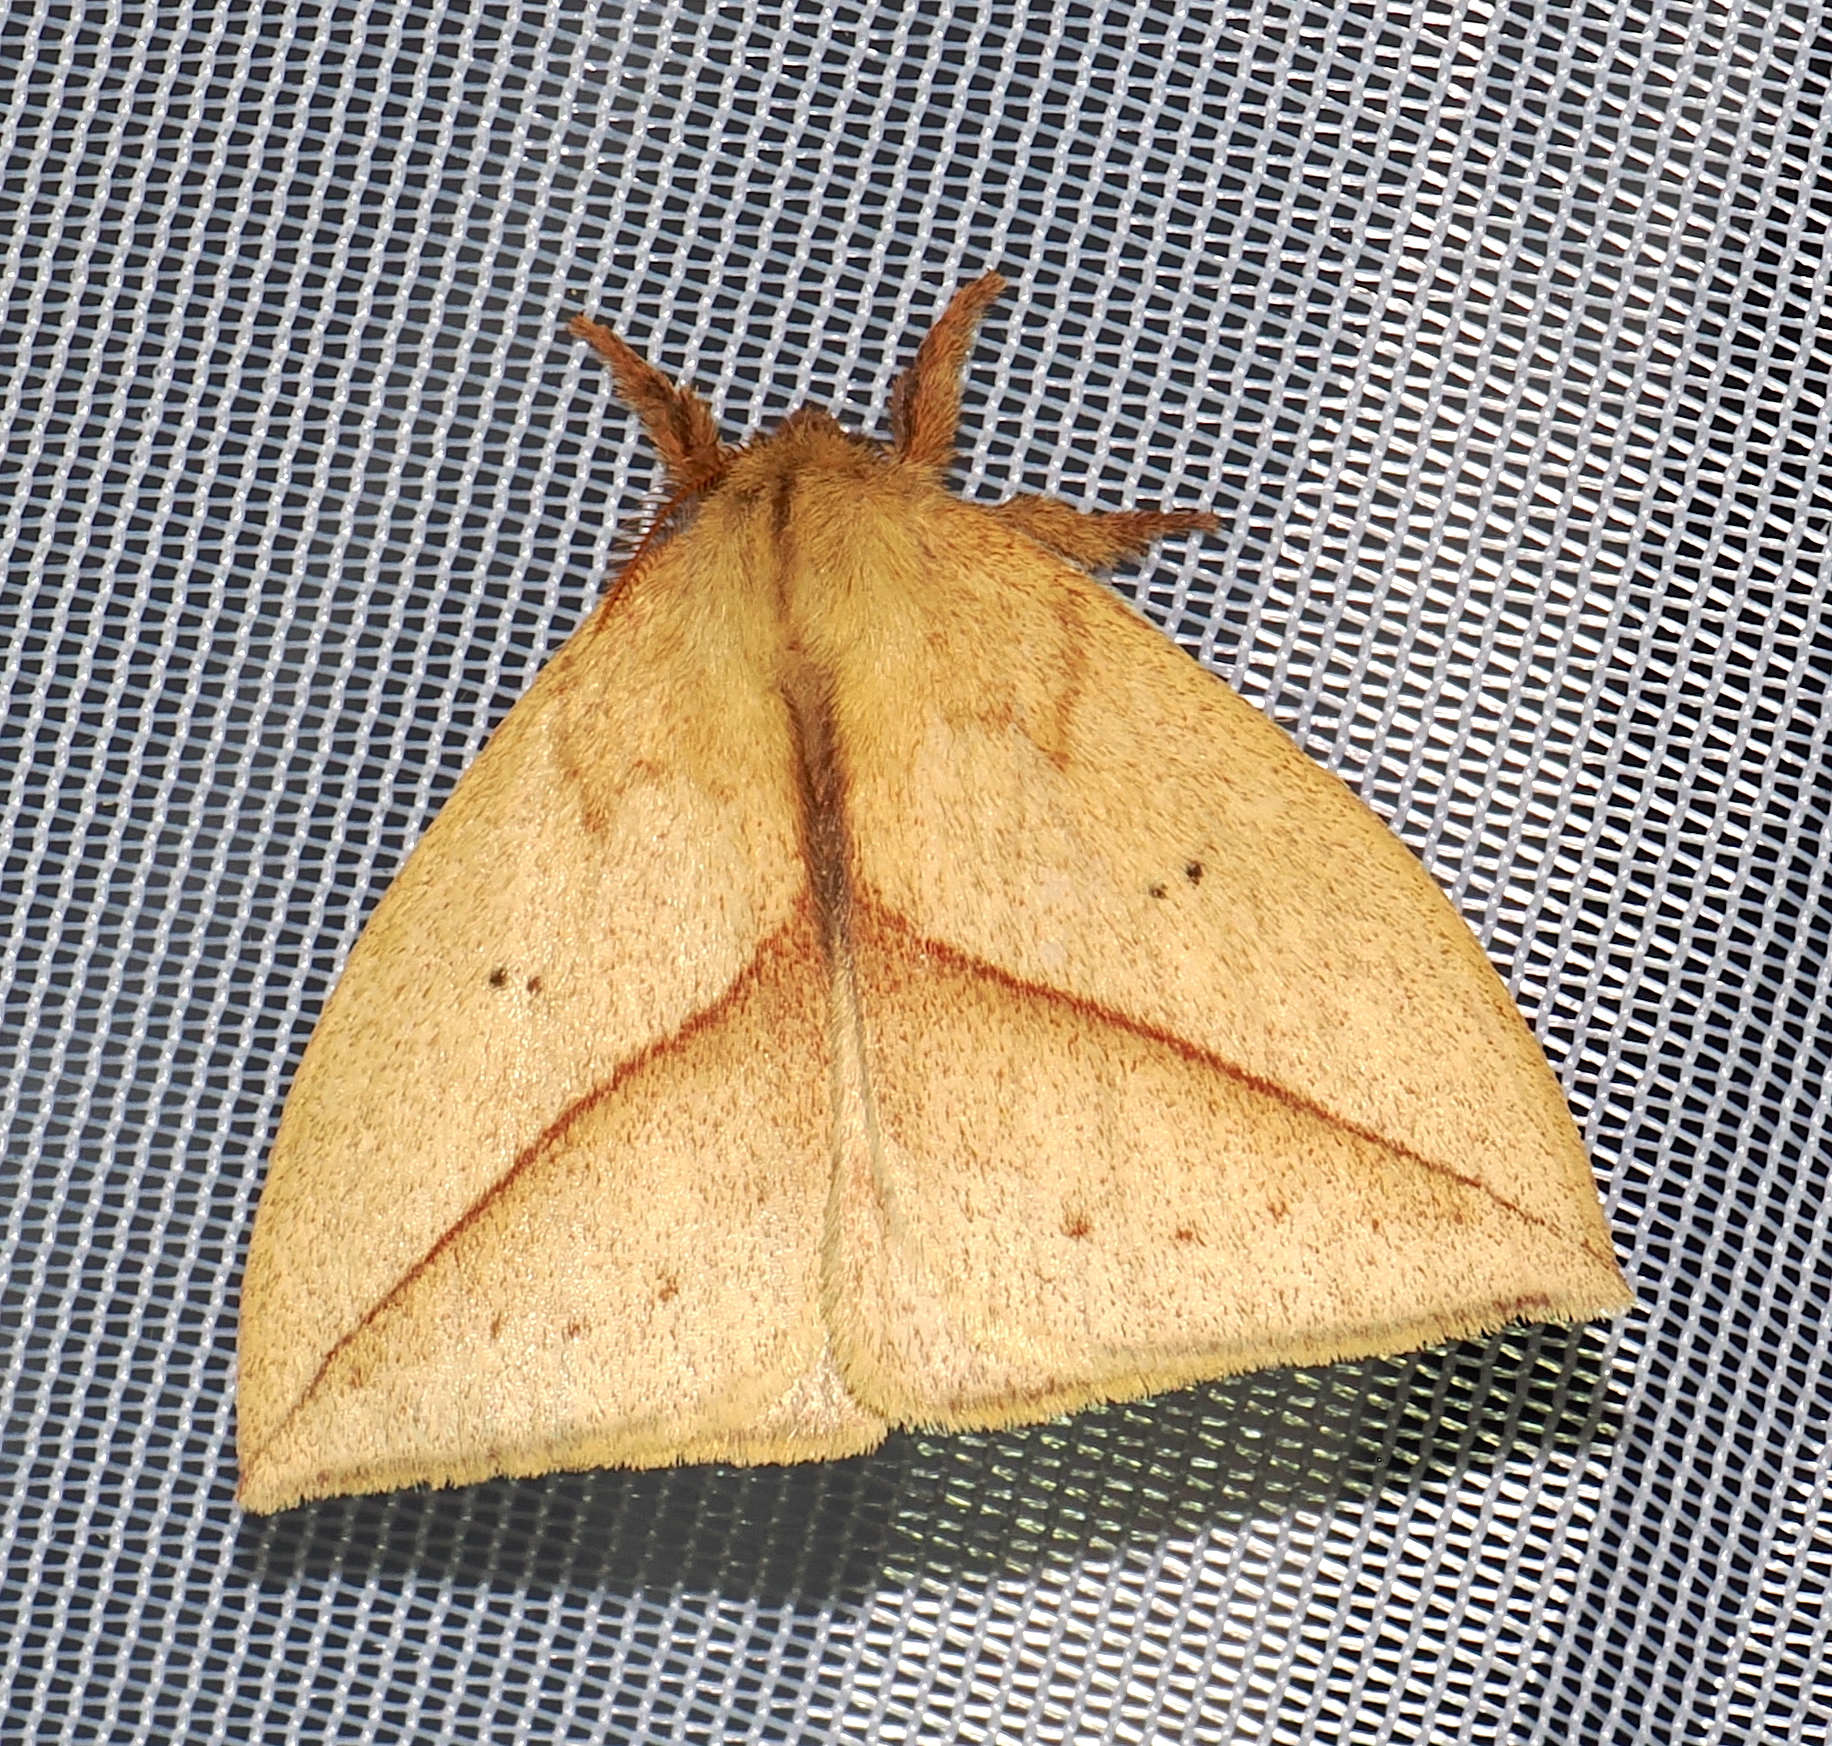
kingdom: Animalia
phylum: Arthropoda
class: Insecta
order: Lepidoptera
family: Saturniidae
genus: Catacantha
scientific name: Catacantha meta
